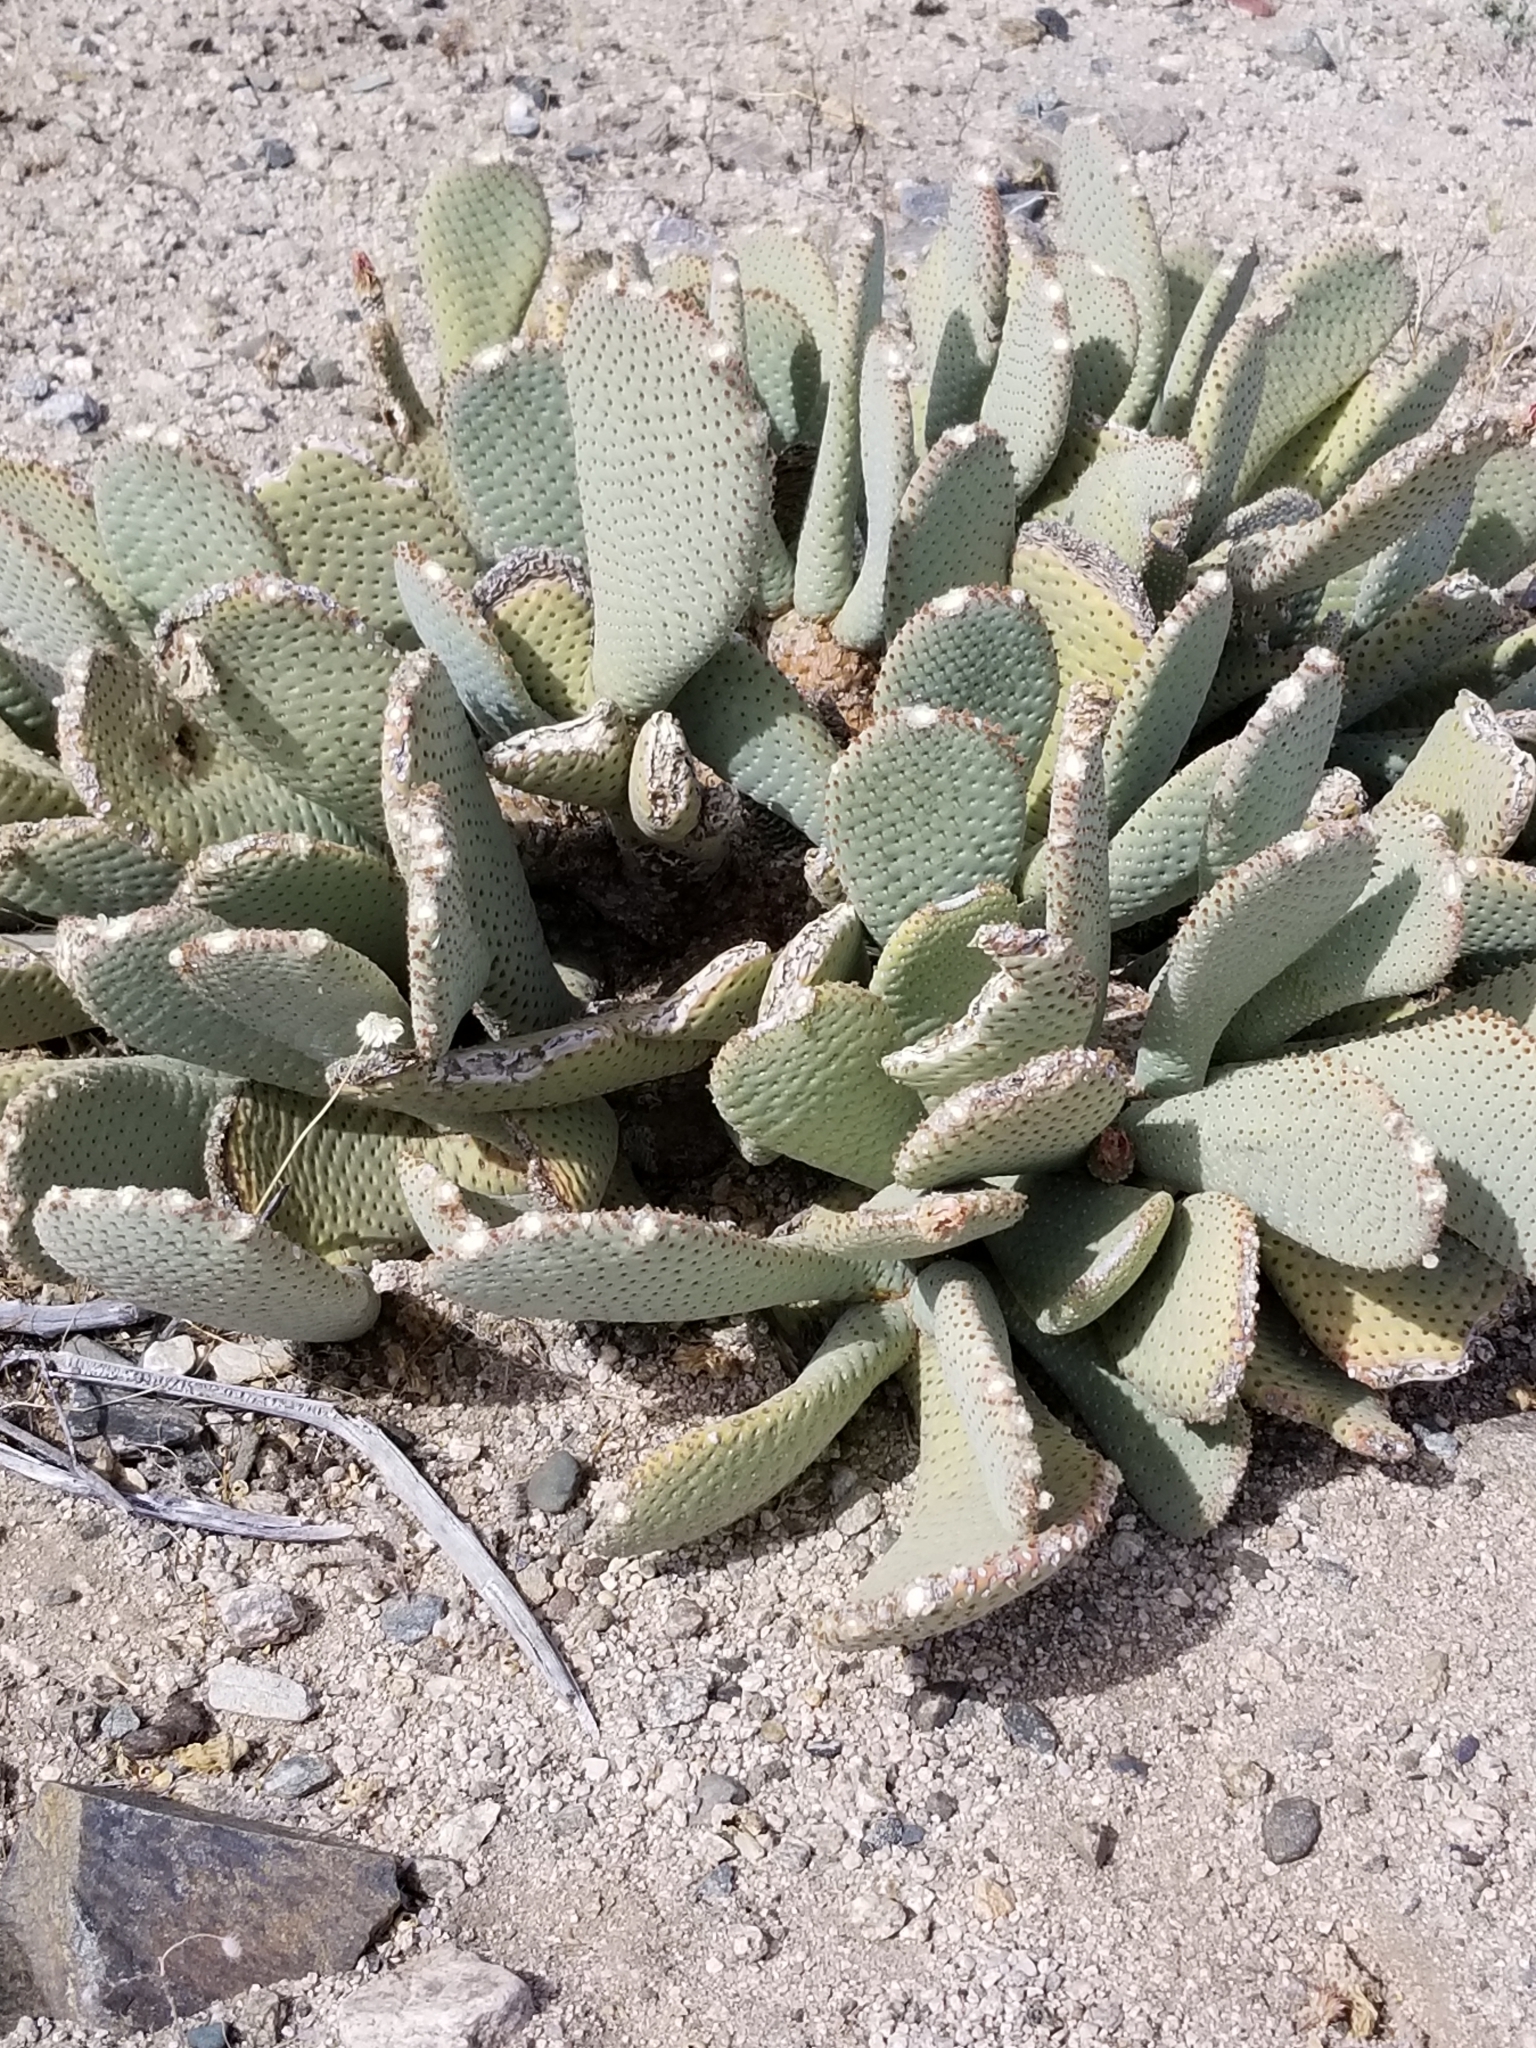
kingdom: Plantae
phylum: Tracheophyta
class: Magnoliopsida
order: Caryophyllales
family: Cactaceae
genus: Opuntia
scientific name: Opuntia basilaris
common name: Beavertail prickly-pear
